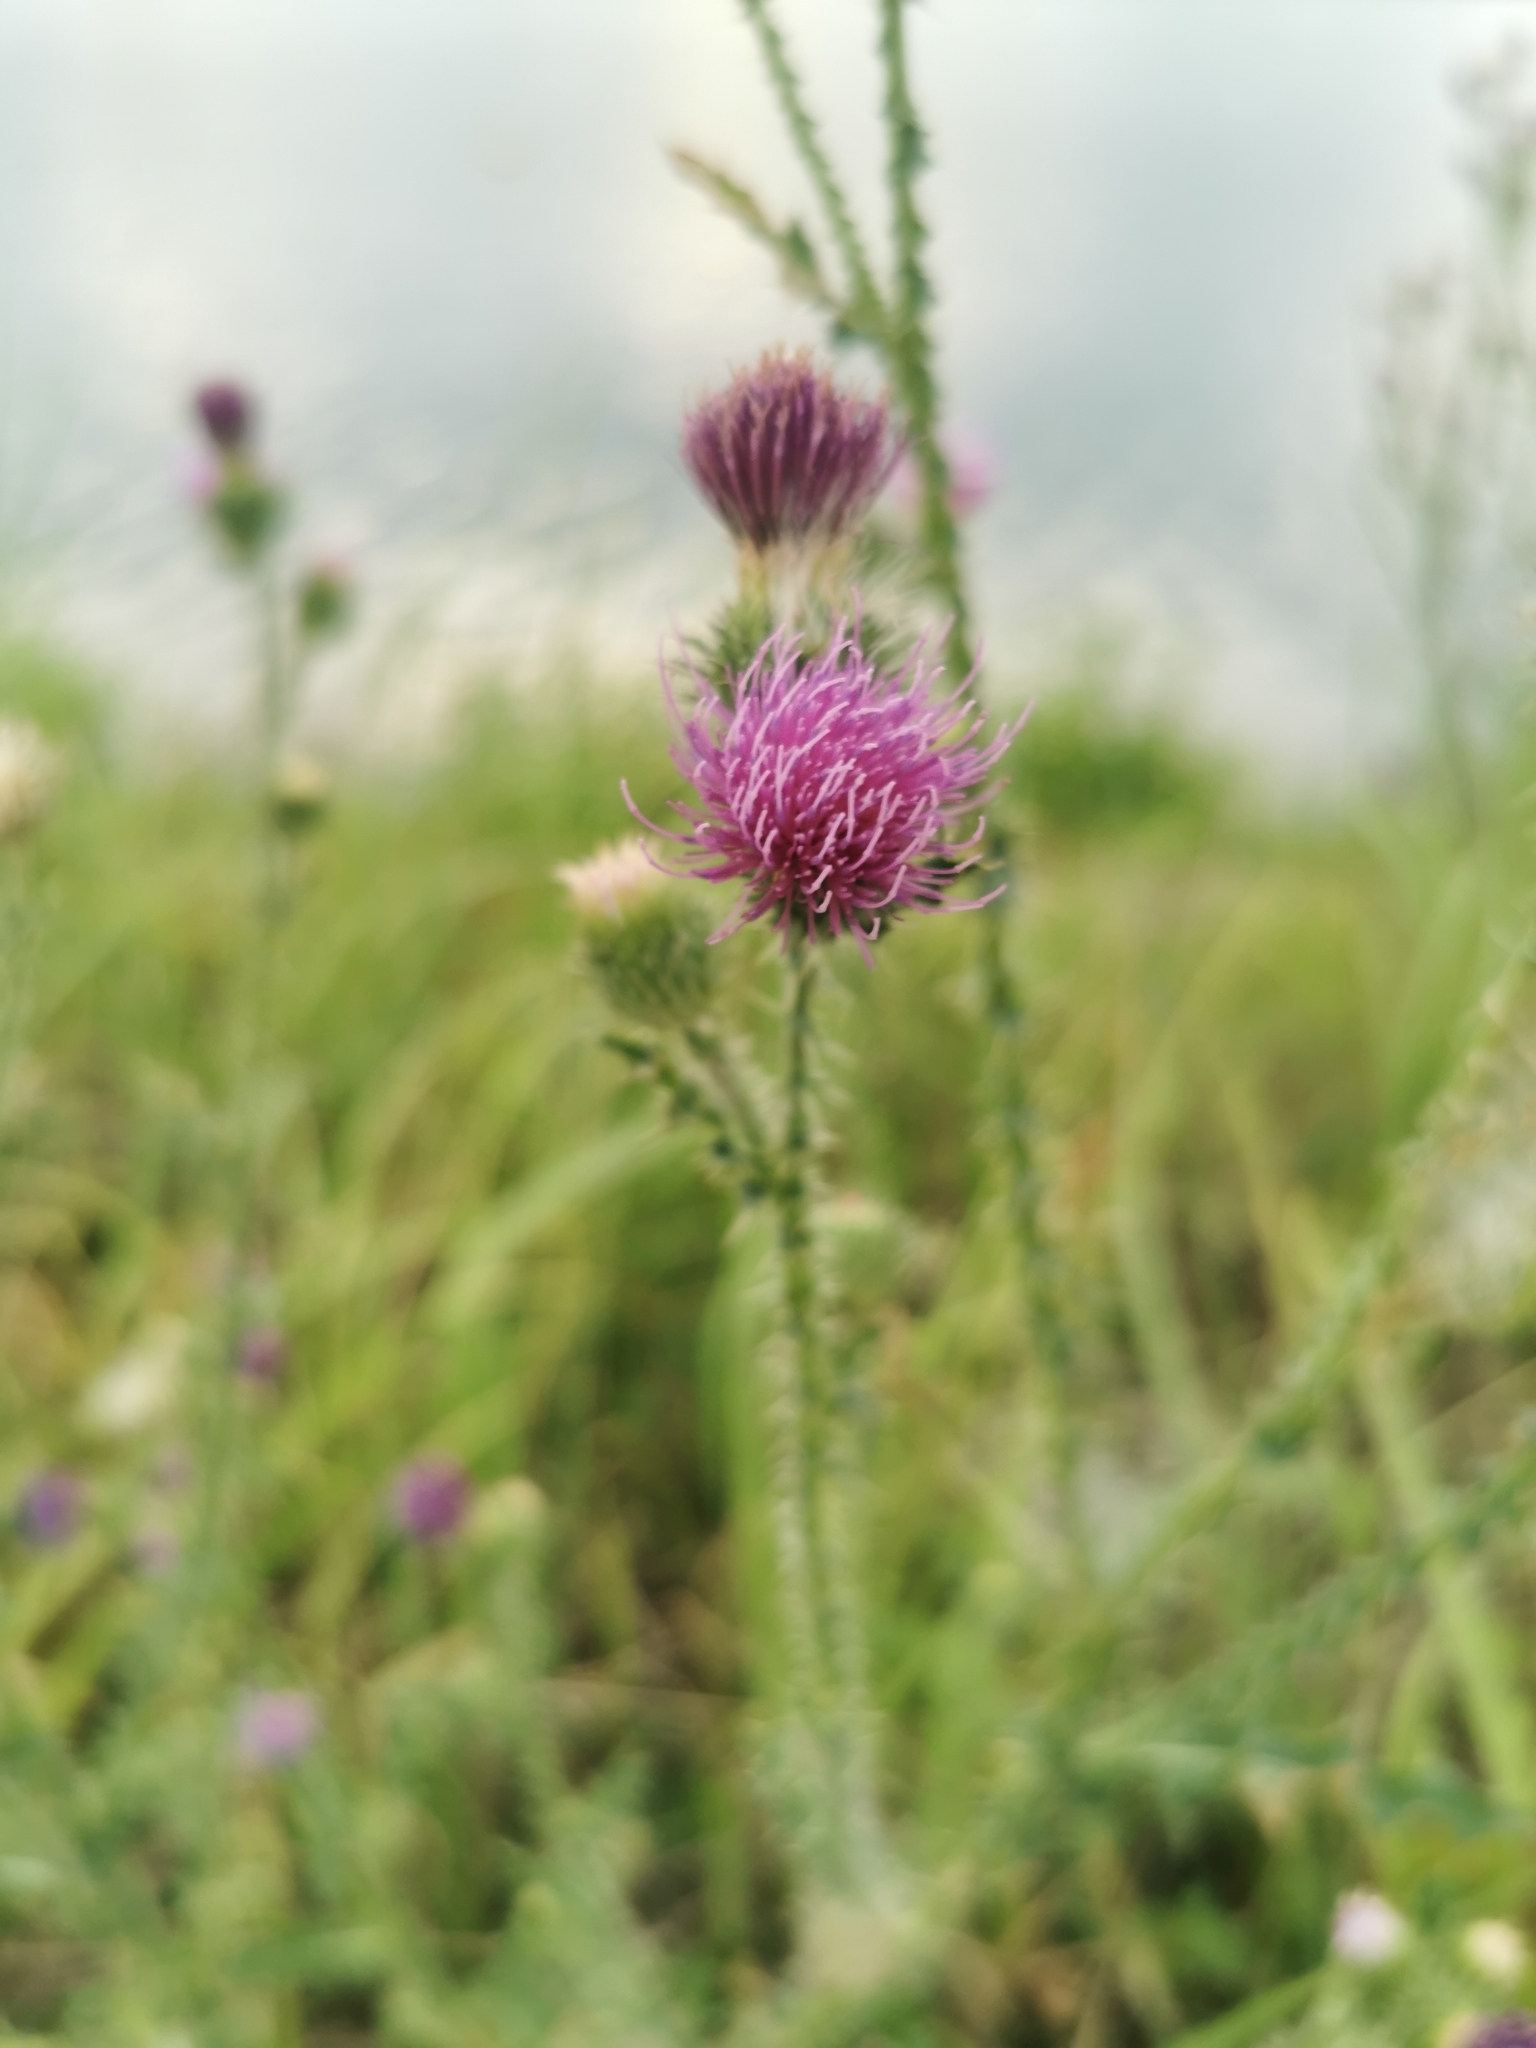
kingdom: Plantae
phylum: Tracheophyta
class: Magnoliopsida
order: Asterales
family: Asteraceae
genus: Carduus
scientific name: Carduus acanthoides
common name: Plumeless thistle
